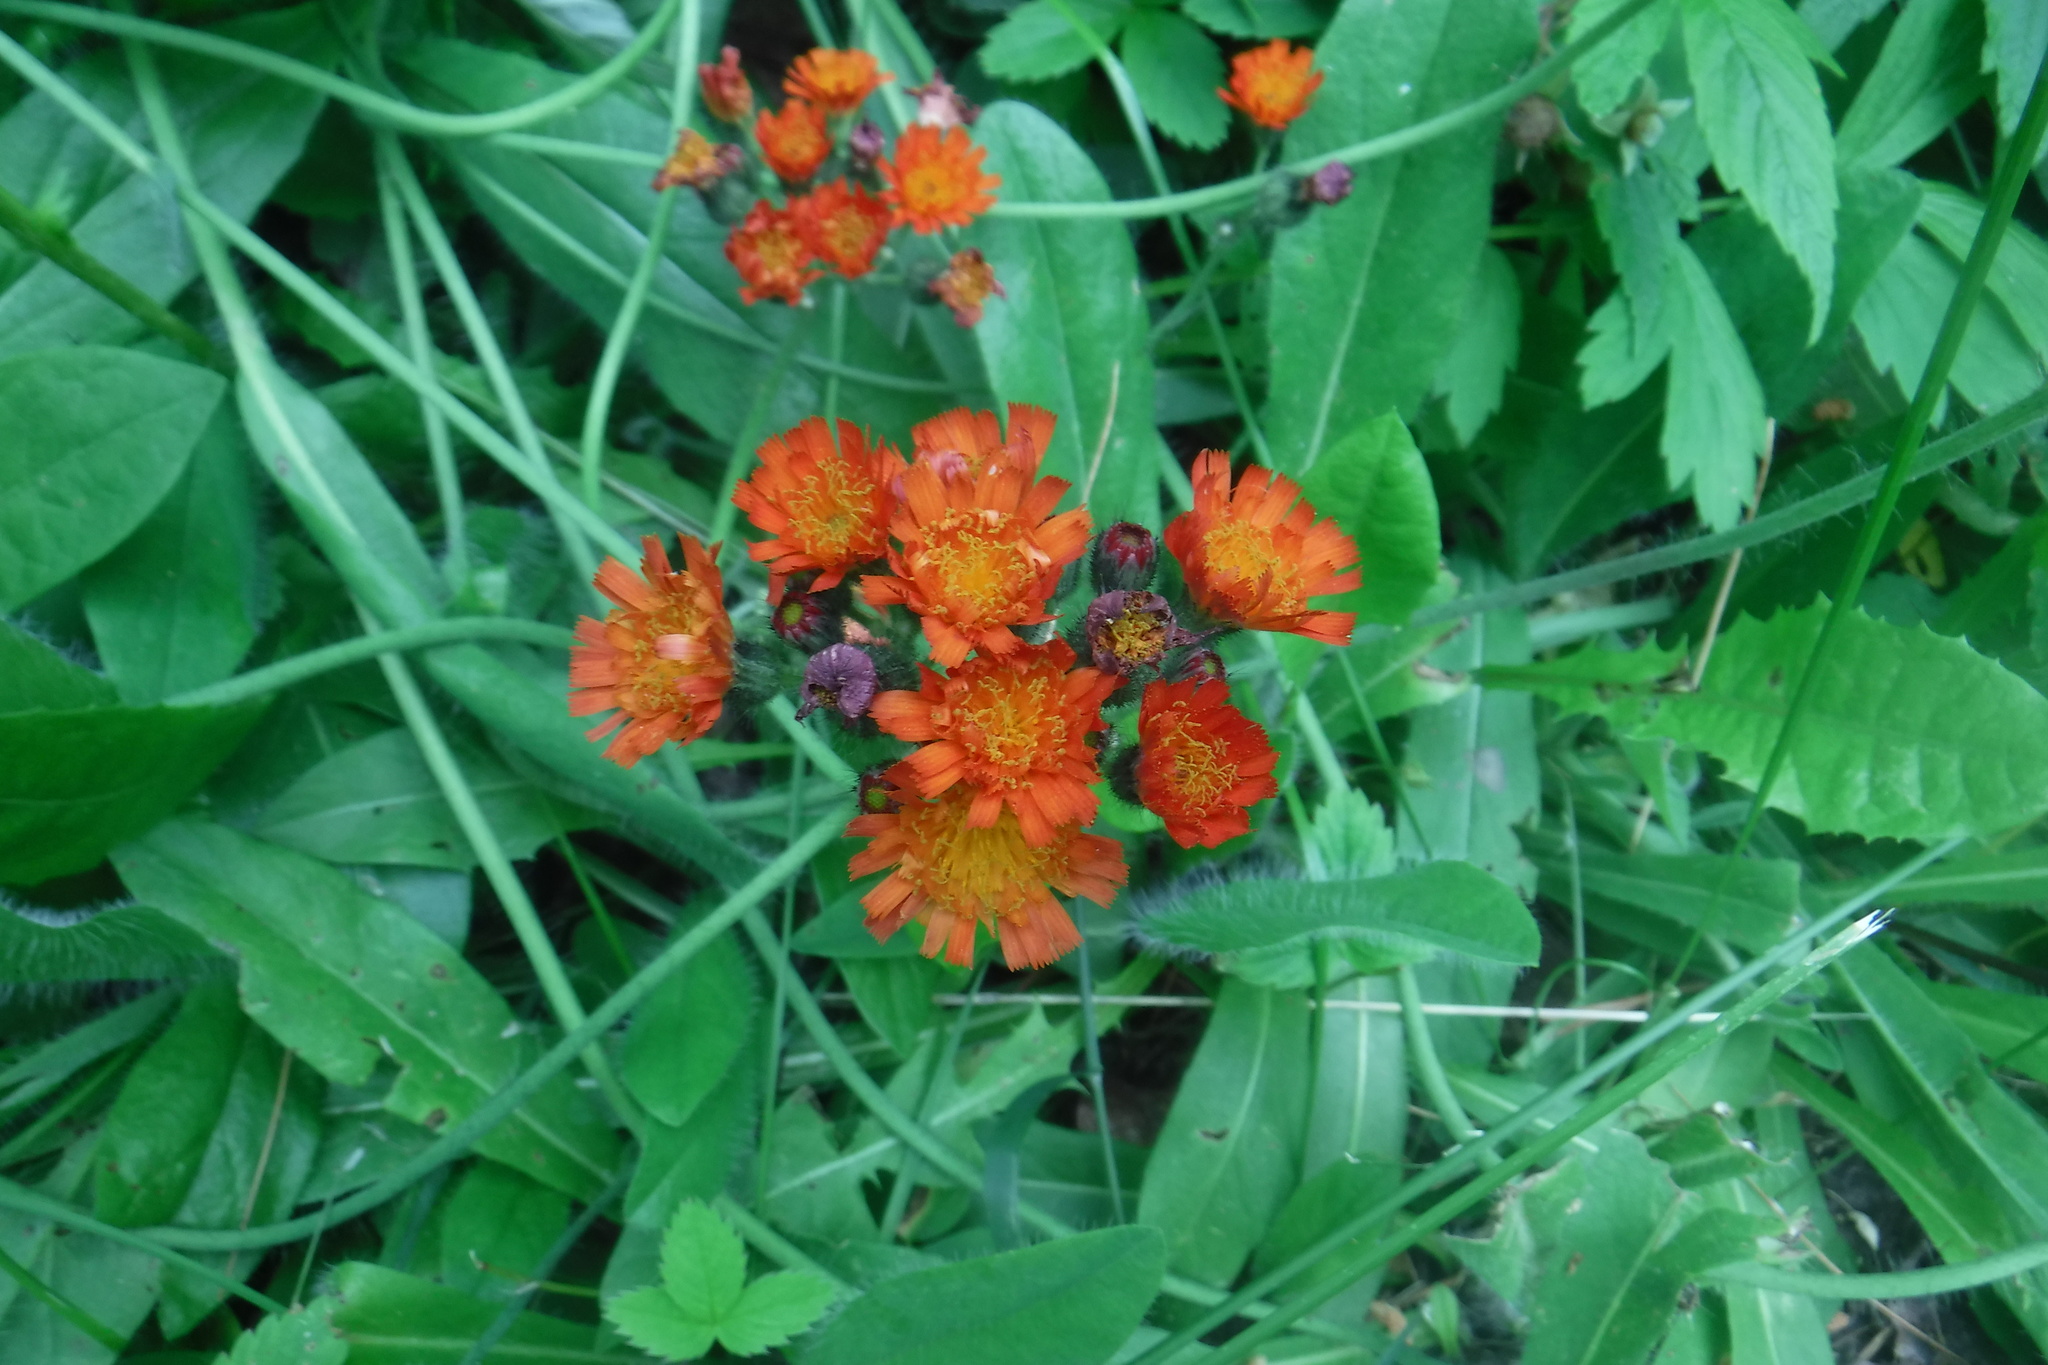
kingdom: Plantae
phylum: Tracheophyta
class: Magnoliopsida
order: Asterales
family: Asteraceae
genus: Pilosella
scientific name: Pilosella aurantiaca
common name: Fox-and-cubs
